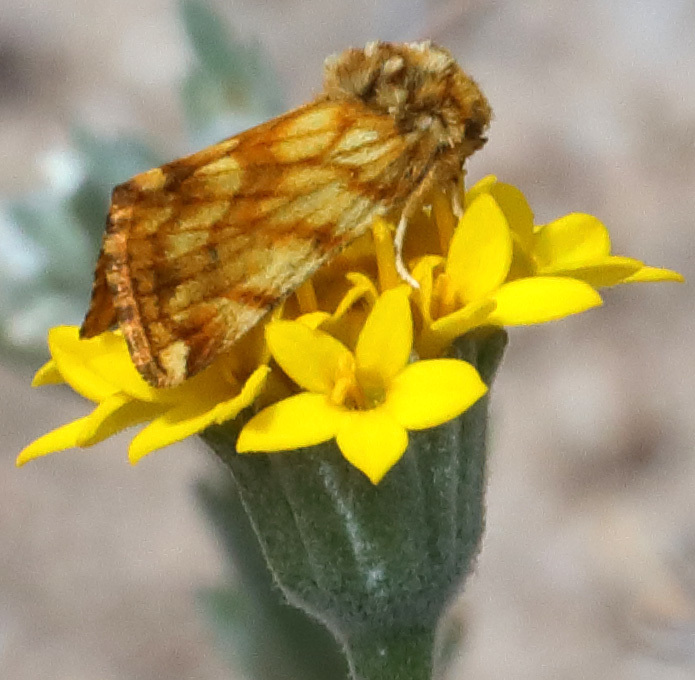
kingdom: Animalia
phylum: Arthropoda
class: Insecta
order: Lepidoptera
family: Noctuidae
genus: Xanthothrix
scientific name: Xanthothrix neumoegeni
